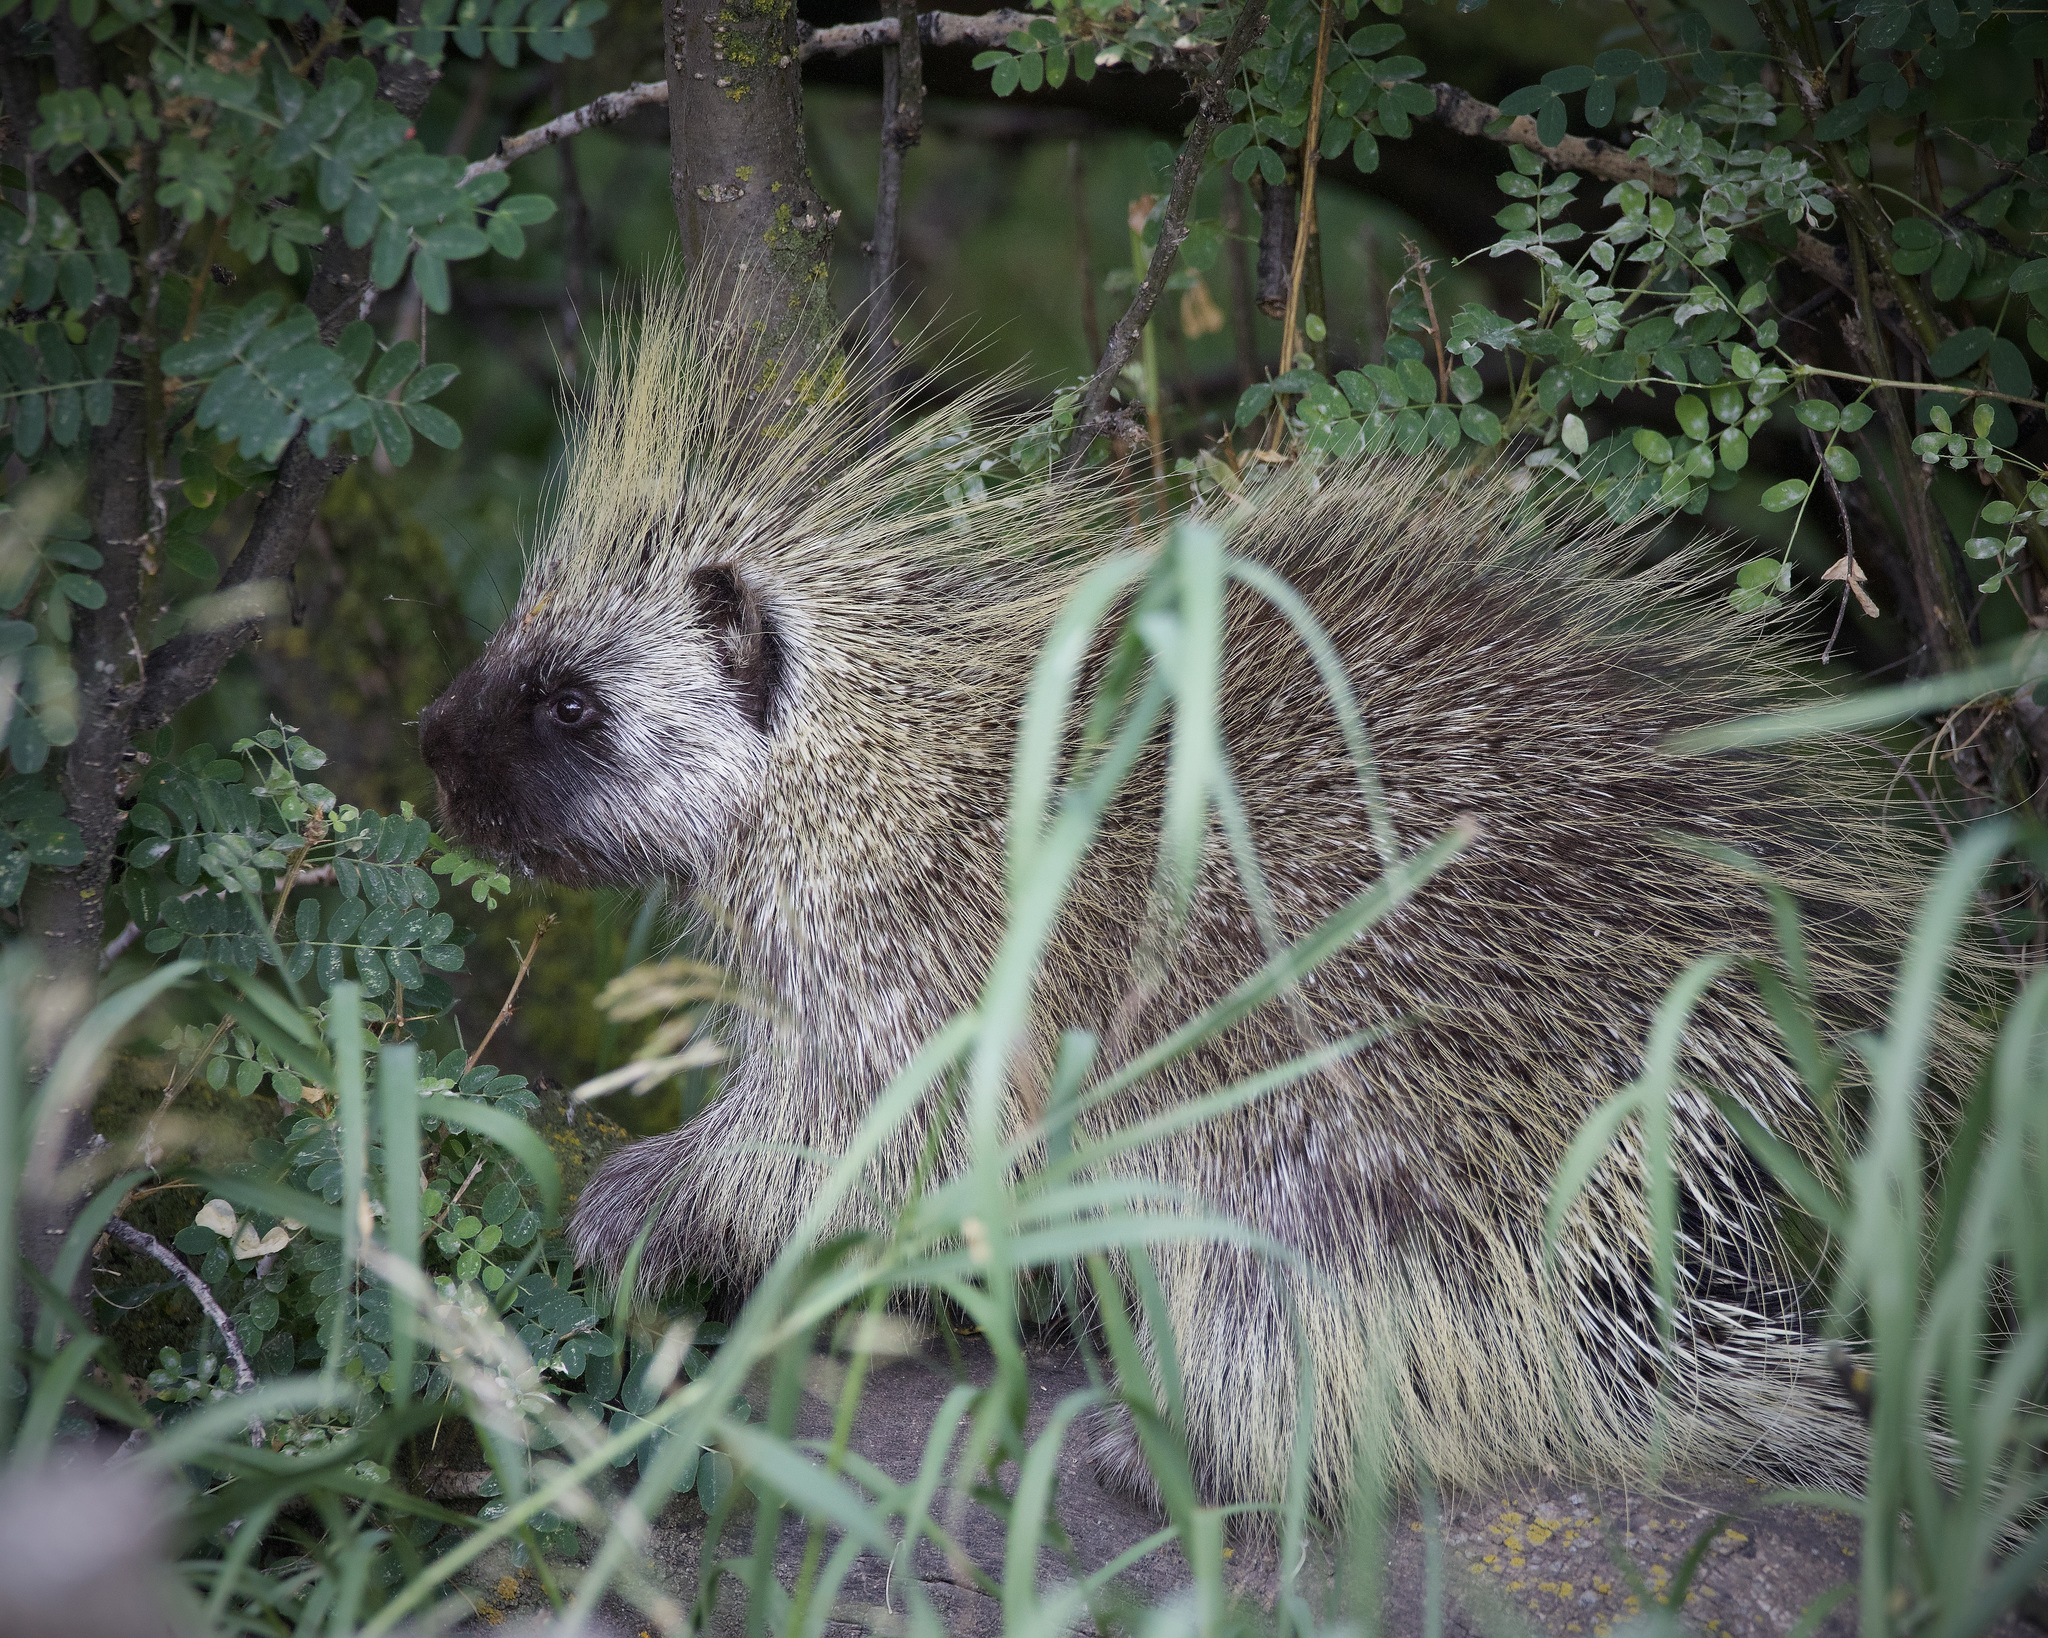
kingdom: Animalia
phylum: Chordata
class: Mammalia
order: Rodentia
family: Erethizontidae
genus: Erethizon
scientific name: Erethizon dorsatus
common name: North american porcupine
